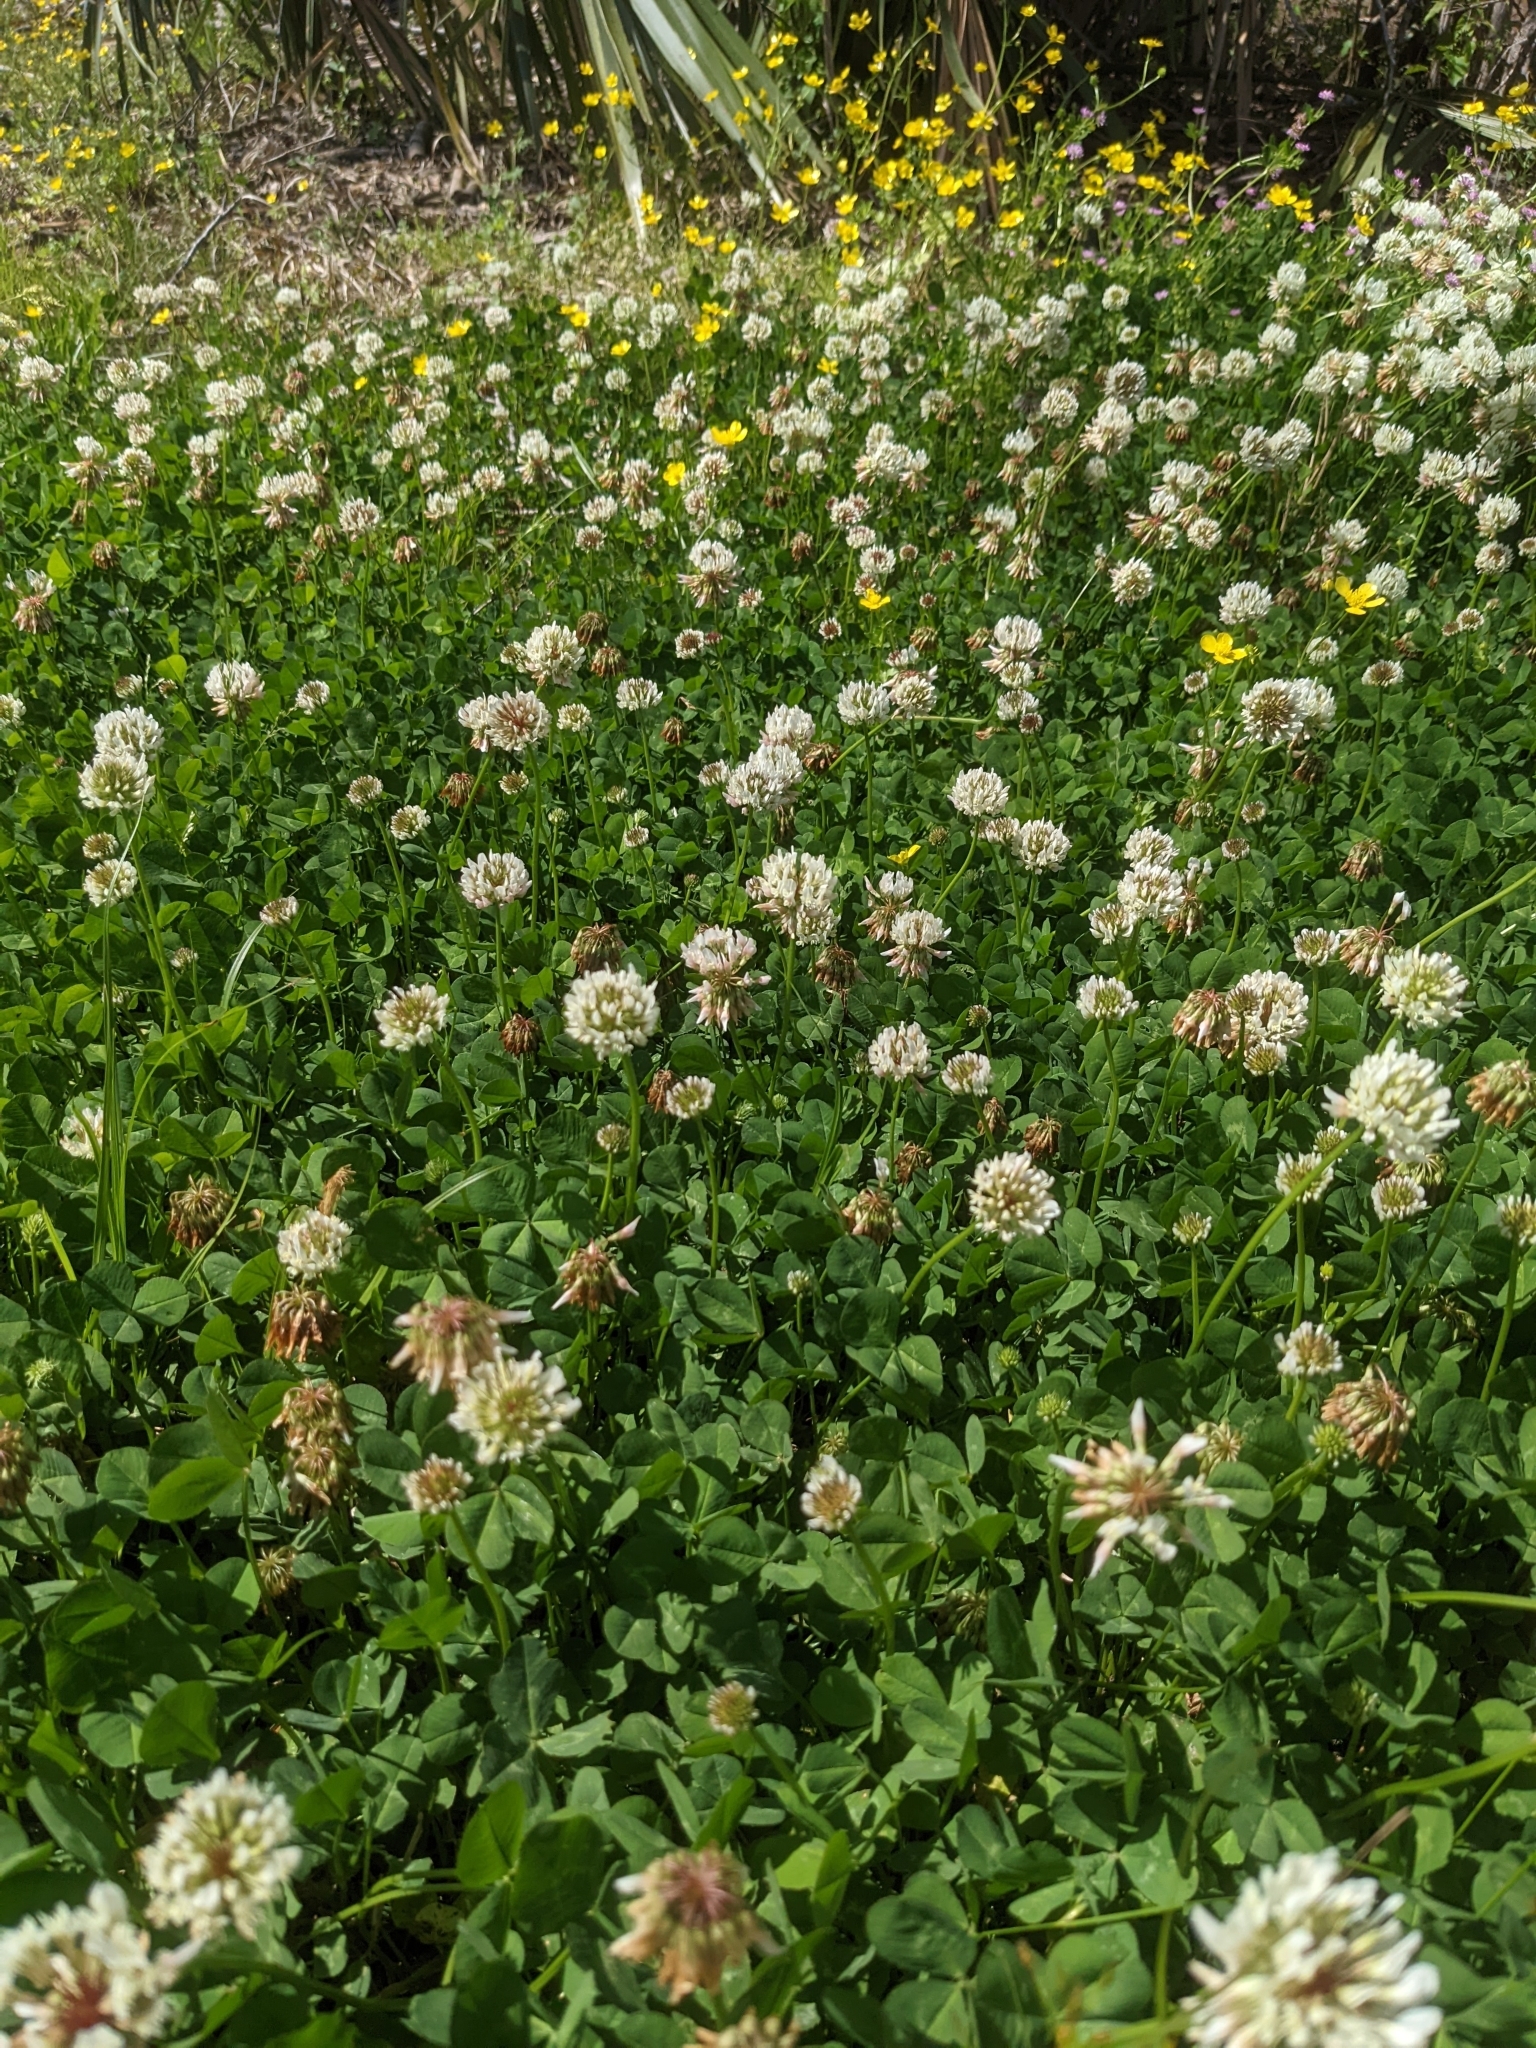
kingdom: Plantae
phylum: Tracheophyta
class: Magnoliopsida
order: Fabales
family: Fabaceae
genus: Trifolium
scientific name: Trifolium repens
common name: White clover
